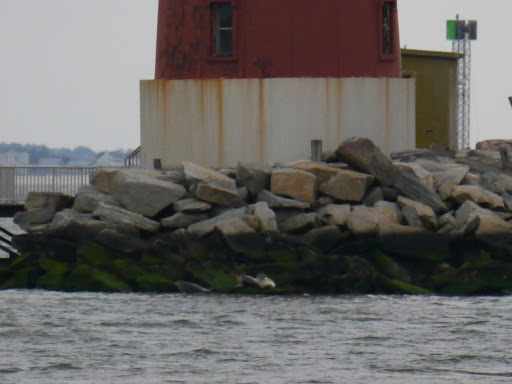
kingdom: Animalia
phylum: Chordata
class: Mammalia
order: Carnivora
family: Phocidae
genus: Phoca
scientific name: Phoca vitulina
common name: Harbor seal
